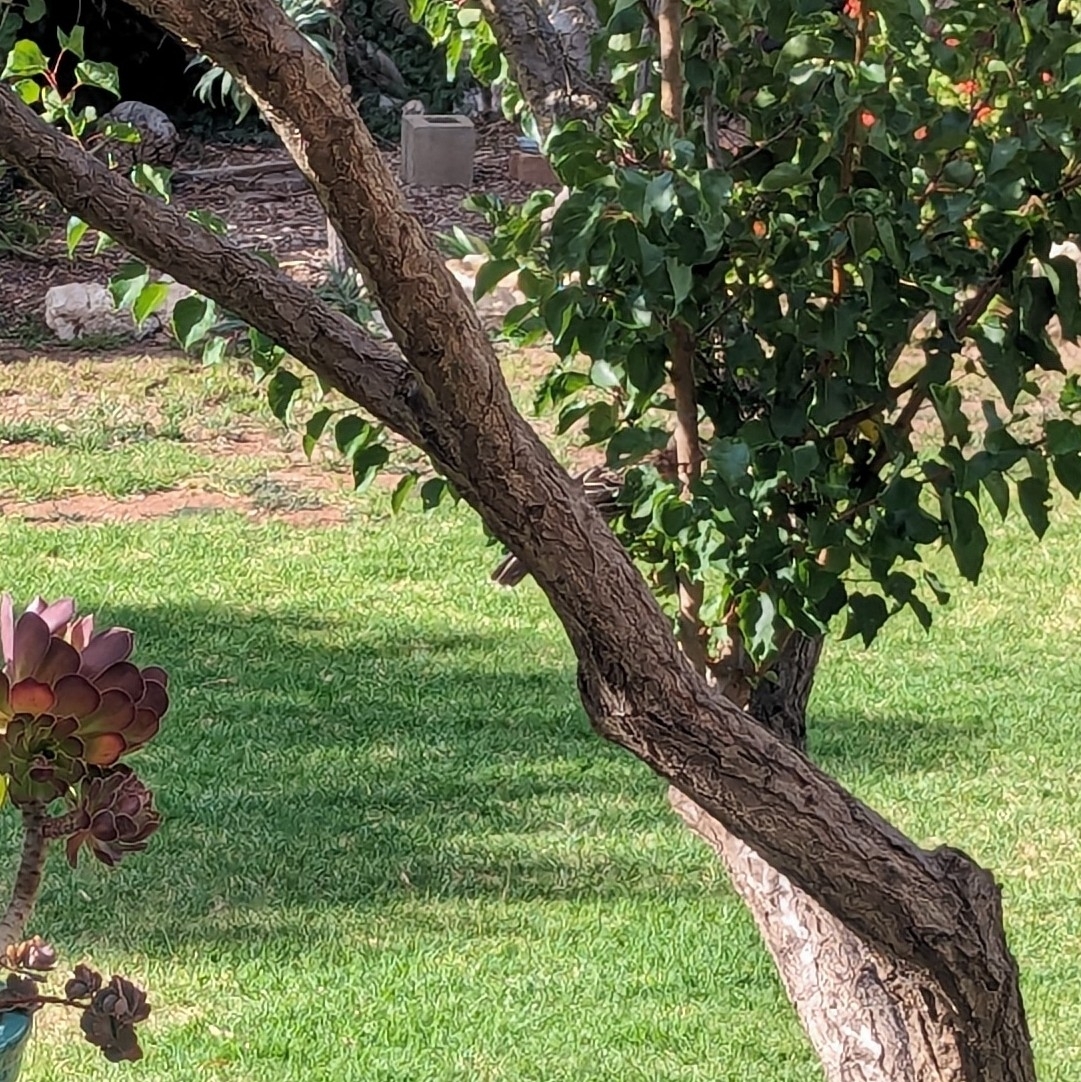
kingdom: Animalia
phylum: Chordata
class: Aves
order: Passeriformes
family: Meliphagidae
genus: Anthochaera
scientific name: Anthochaera carunculata
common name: Red wattlebird
